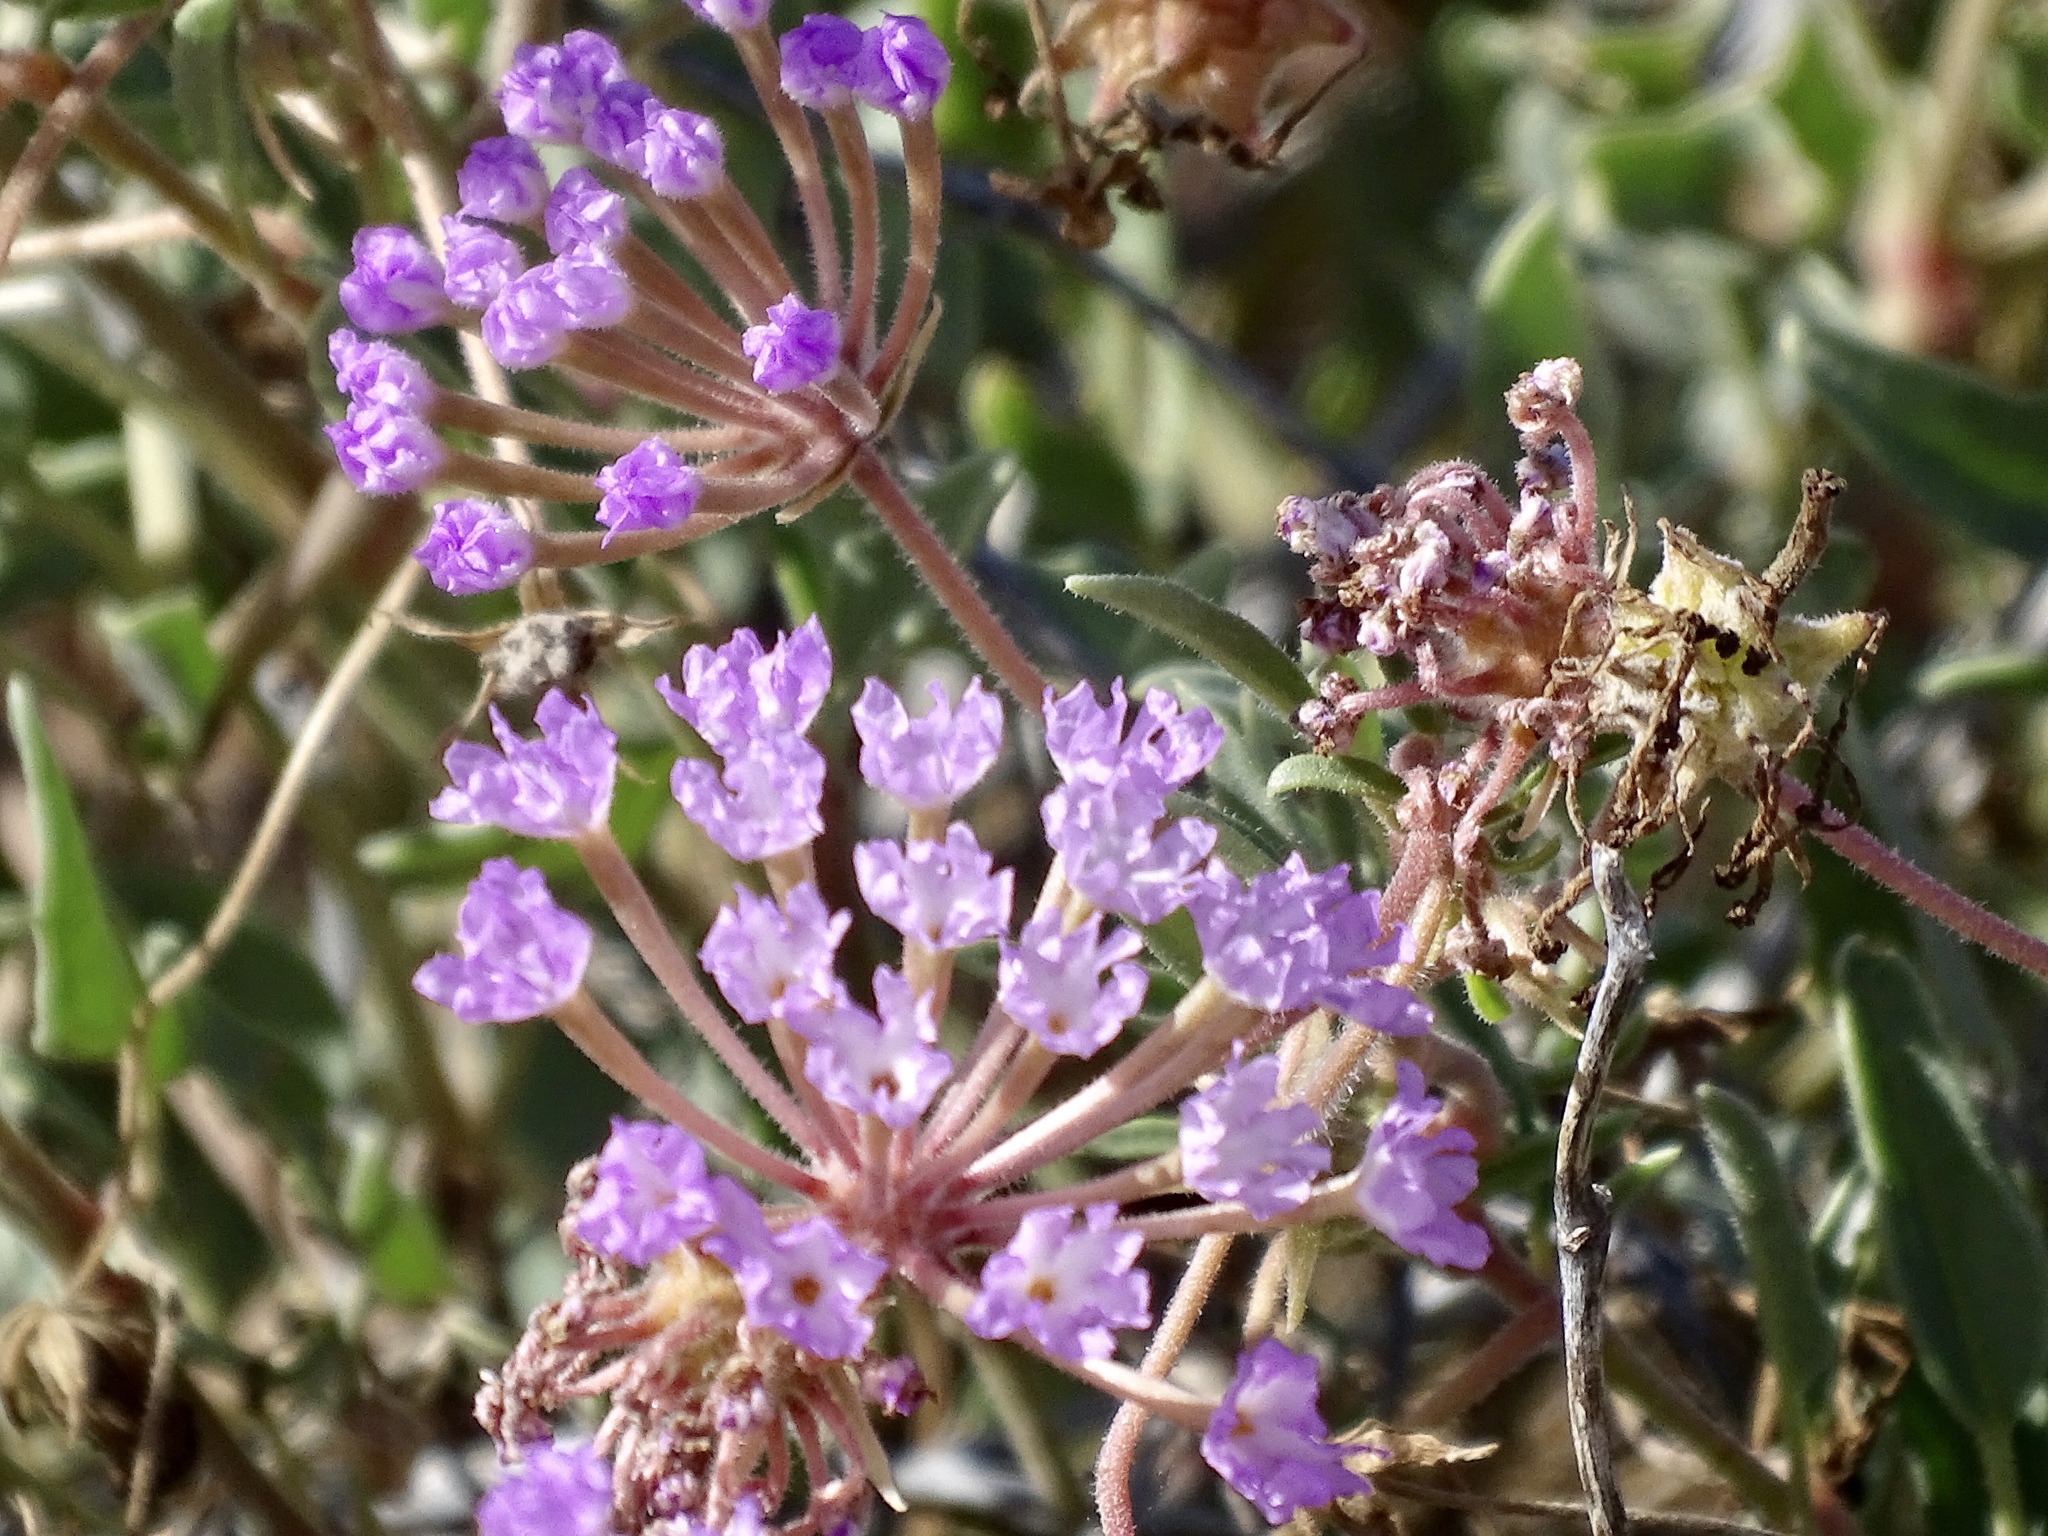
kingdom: Plantae
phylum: Tracheophyta
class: Magnoliopsida
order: Caryophyllales
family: Nyctaginaceae
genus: Abronia
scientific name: Abronia angustifolia
